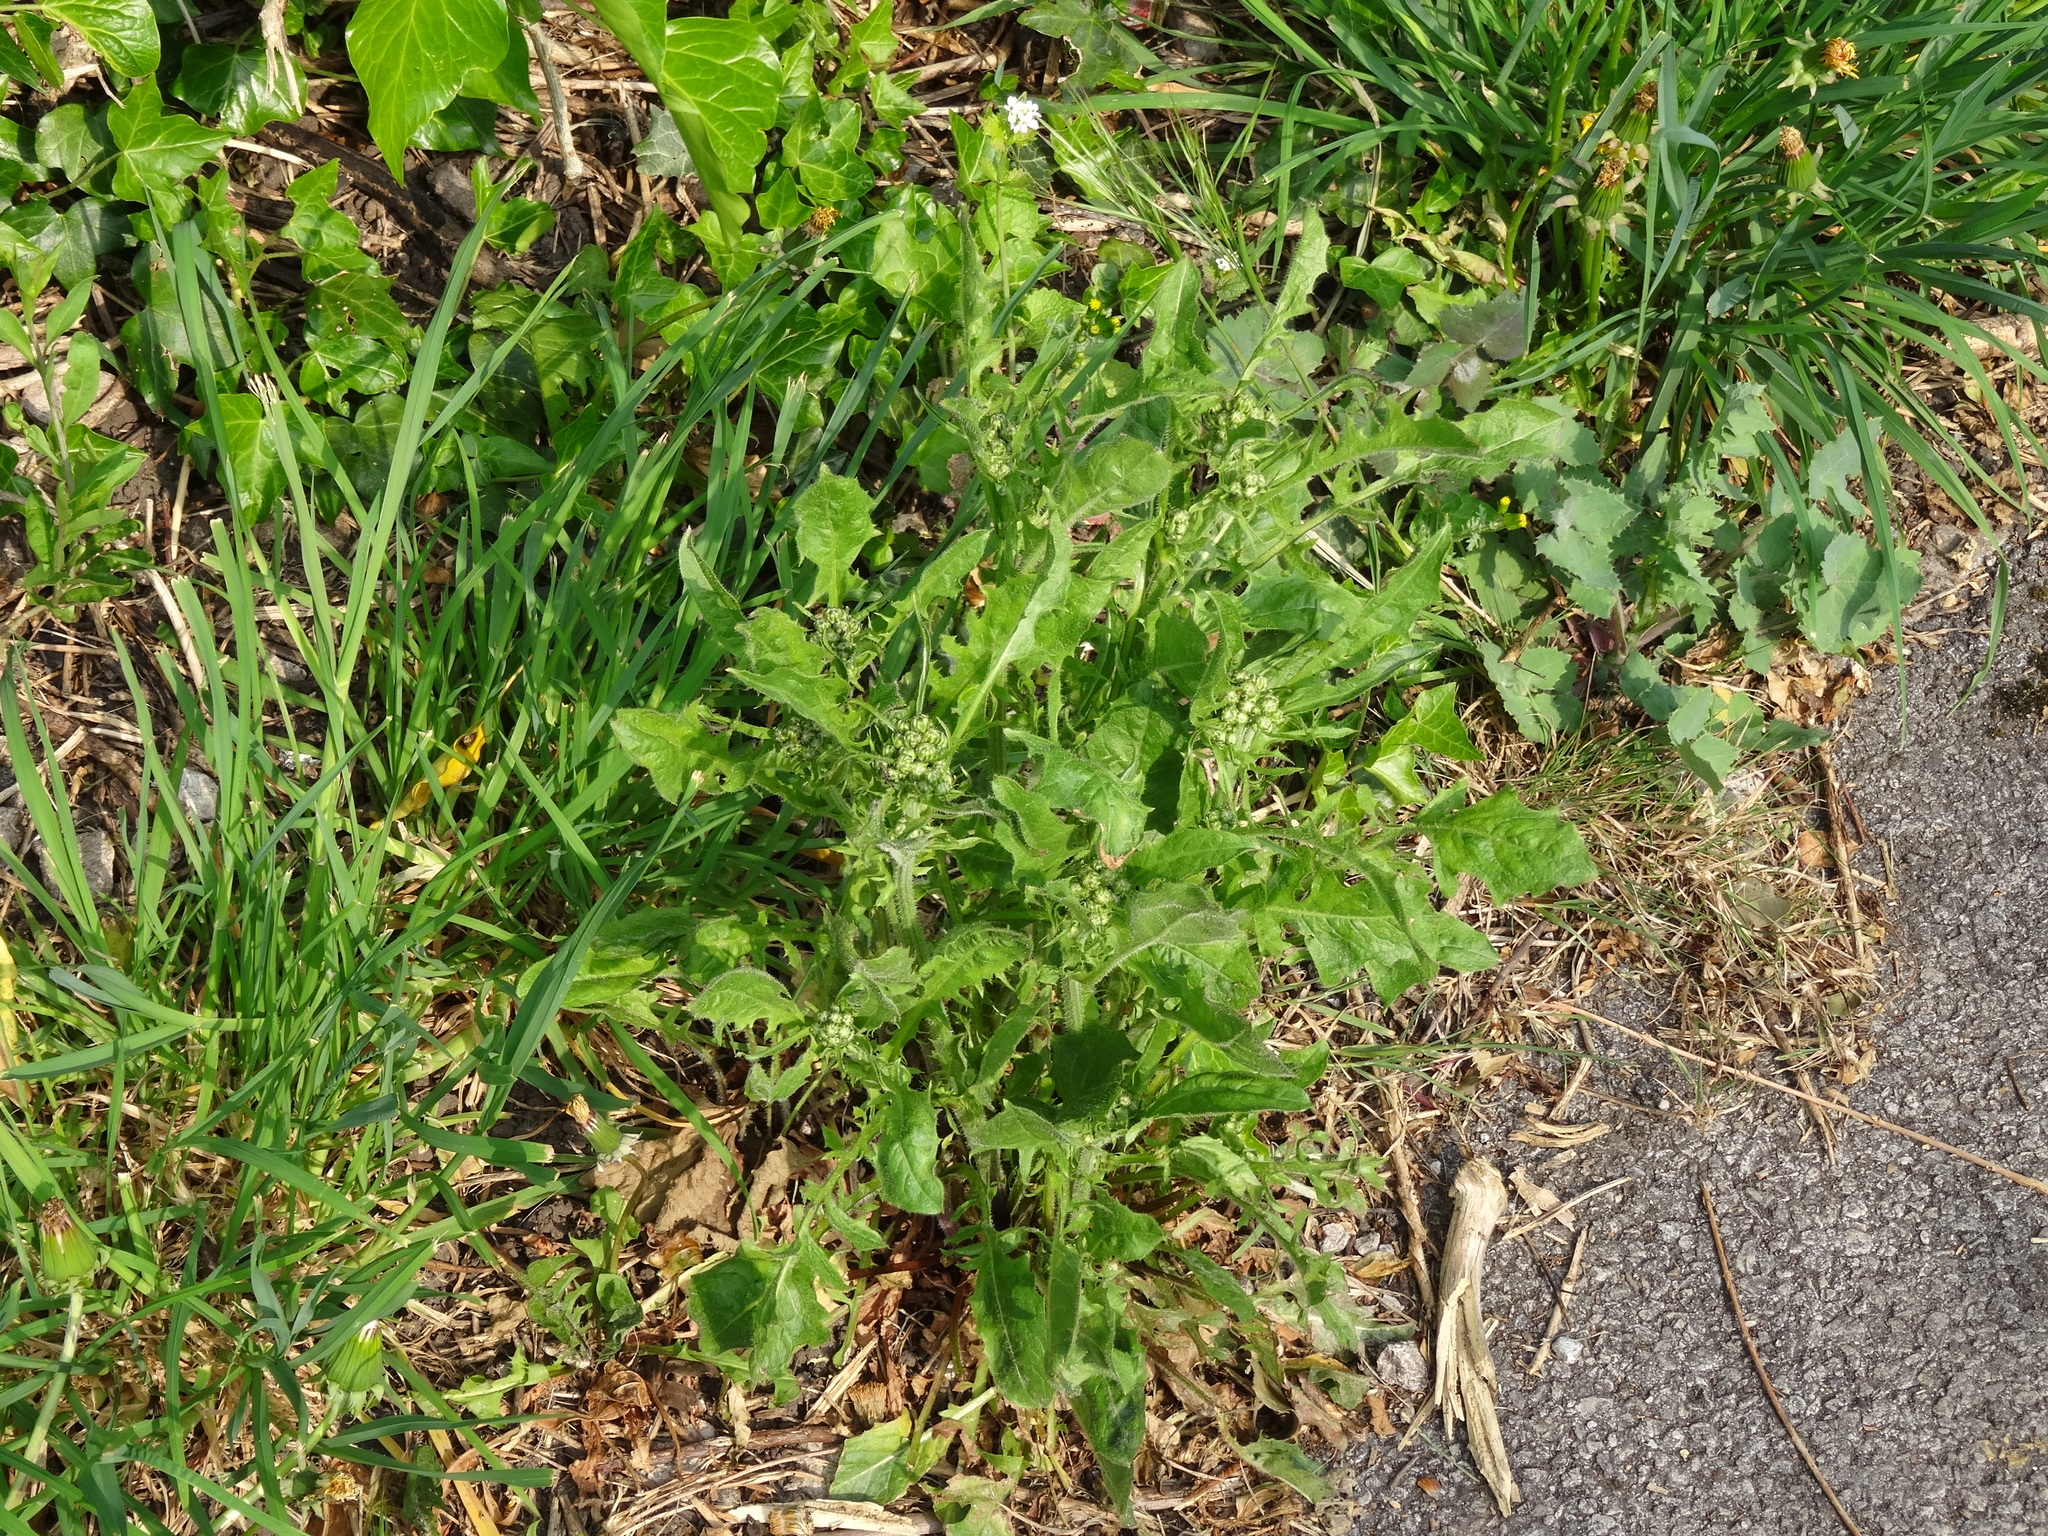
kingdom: Plantae
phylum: Tracheophyta
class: Magnoliopsida
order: Asterales
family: Asteraceae
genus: Crepis
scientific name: Crepis vesicaria
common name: Beaked hawksbeard
